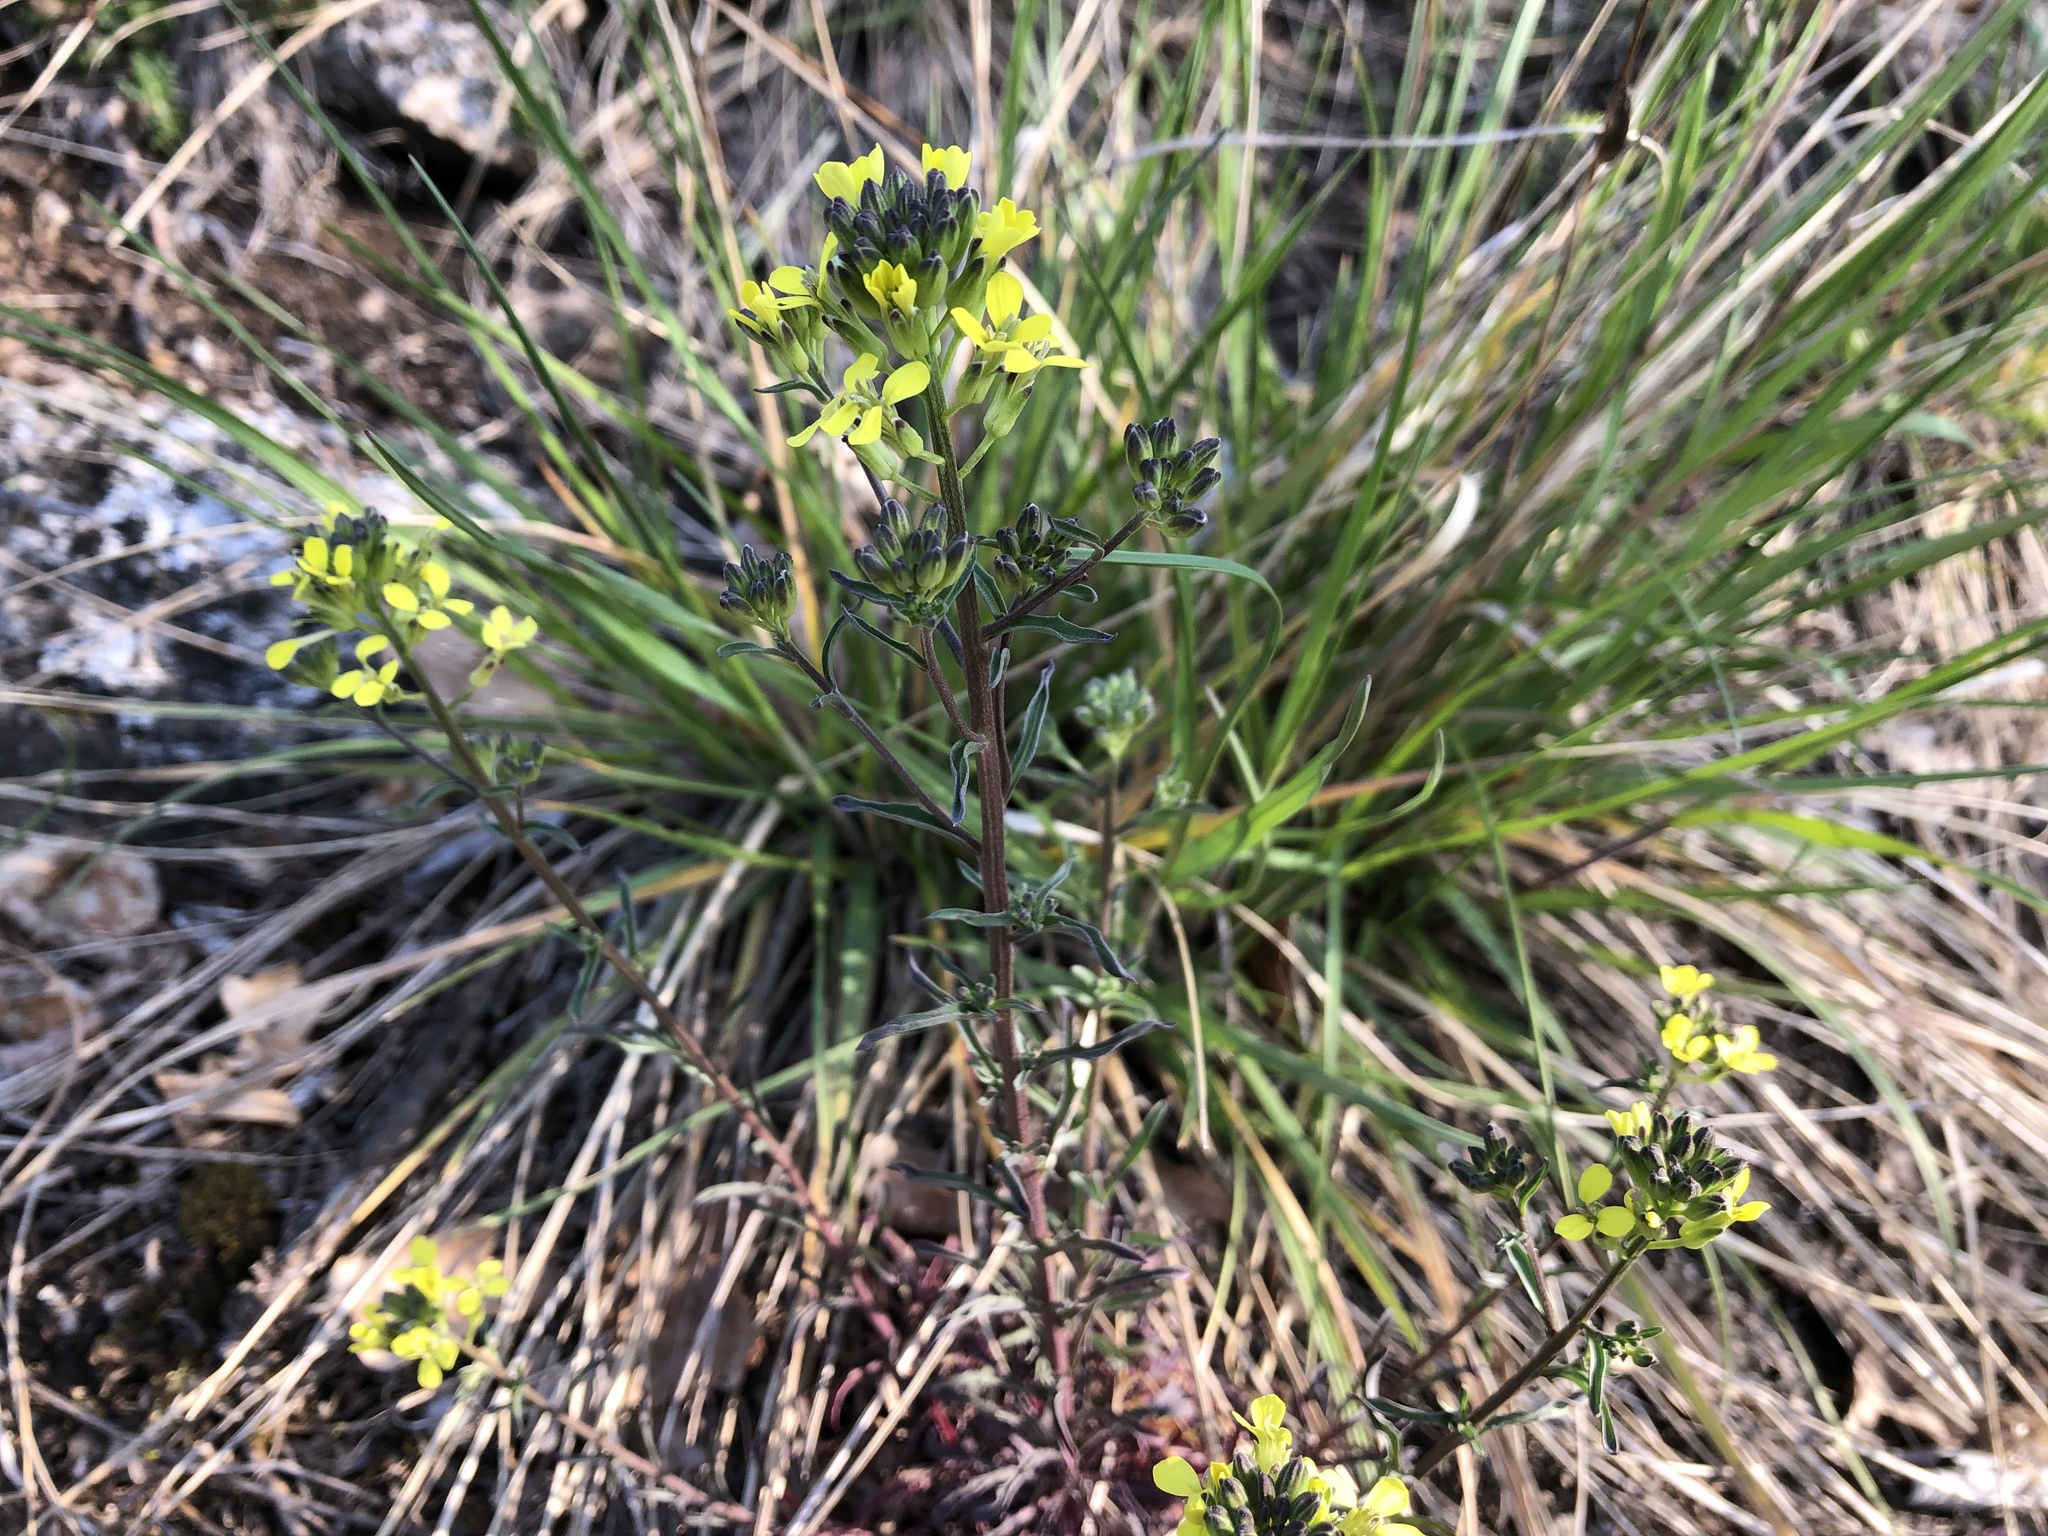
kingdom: Plantae
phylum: Tracheophyta
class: Magnoliopsida
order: Brassicales
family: Brassicaceae
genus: Erysimum
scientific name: Erysimum crepidifolium
